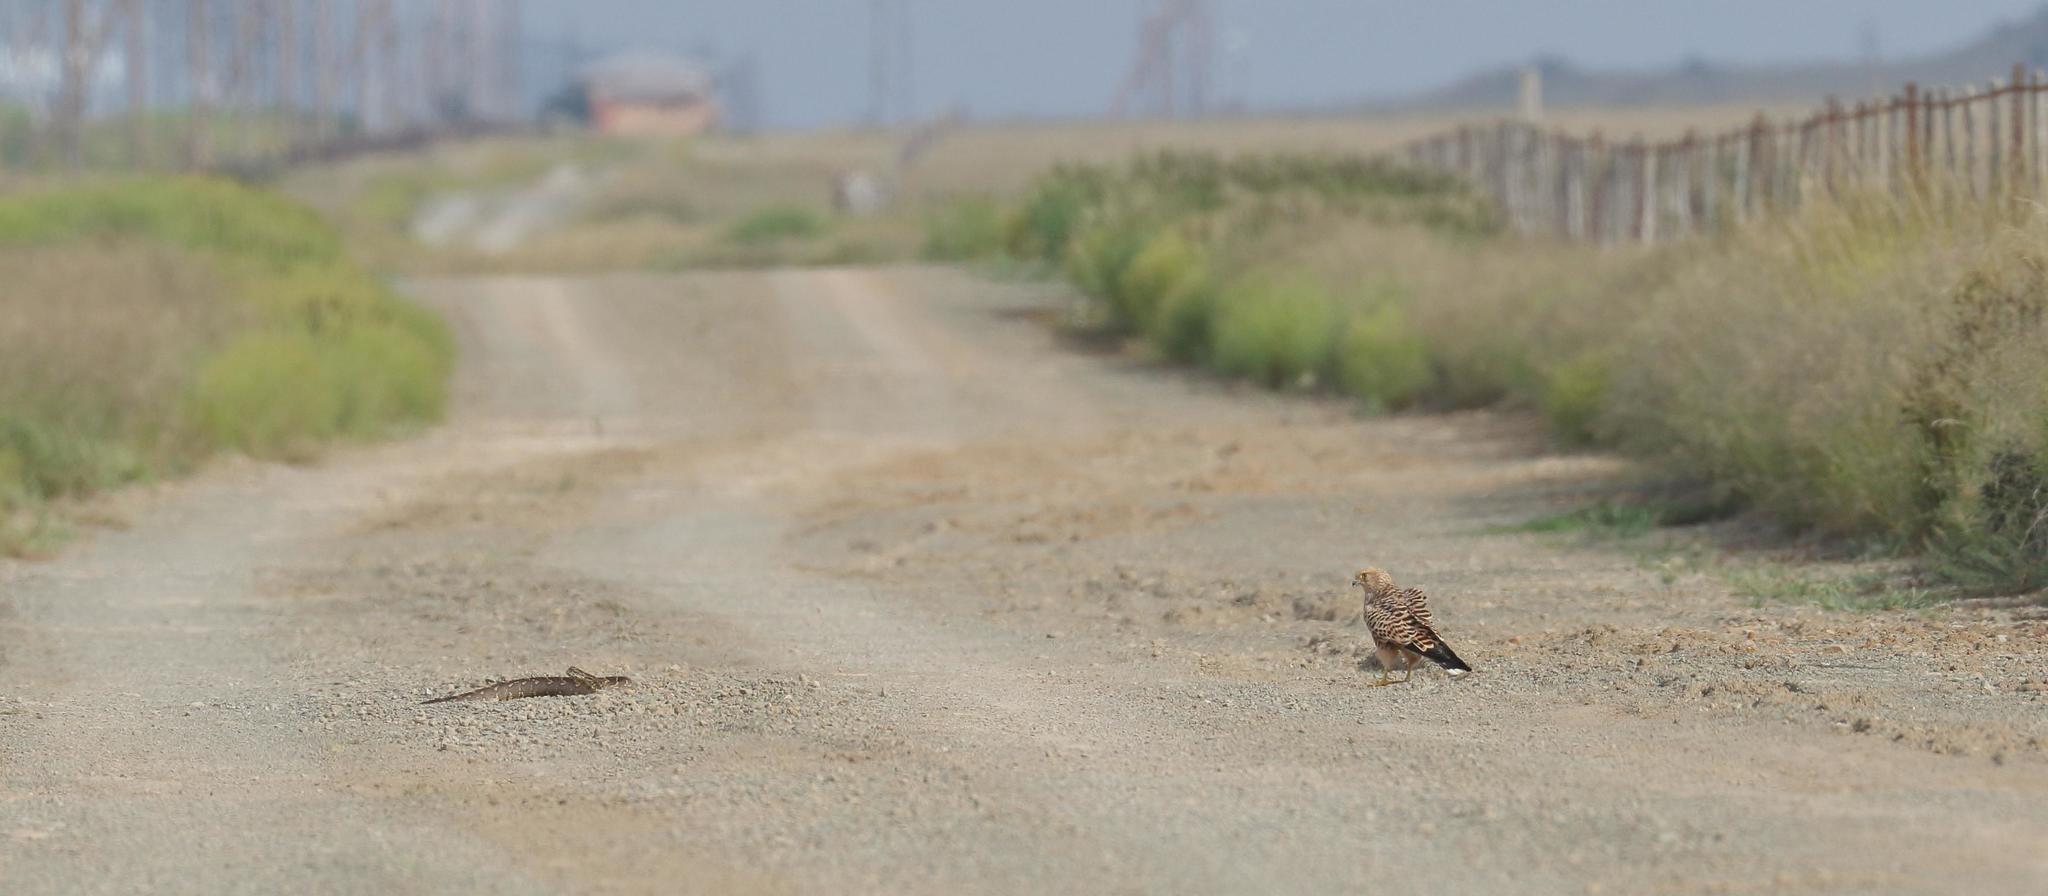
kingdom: Animalia
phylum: Chordata
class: Aves
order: Falconiformes
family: Falconidae
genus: Falco
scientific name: Falco rupicoloides
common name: Greater kestrel
